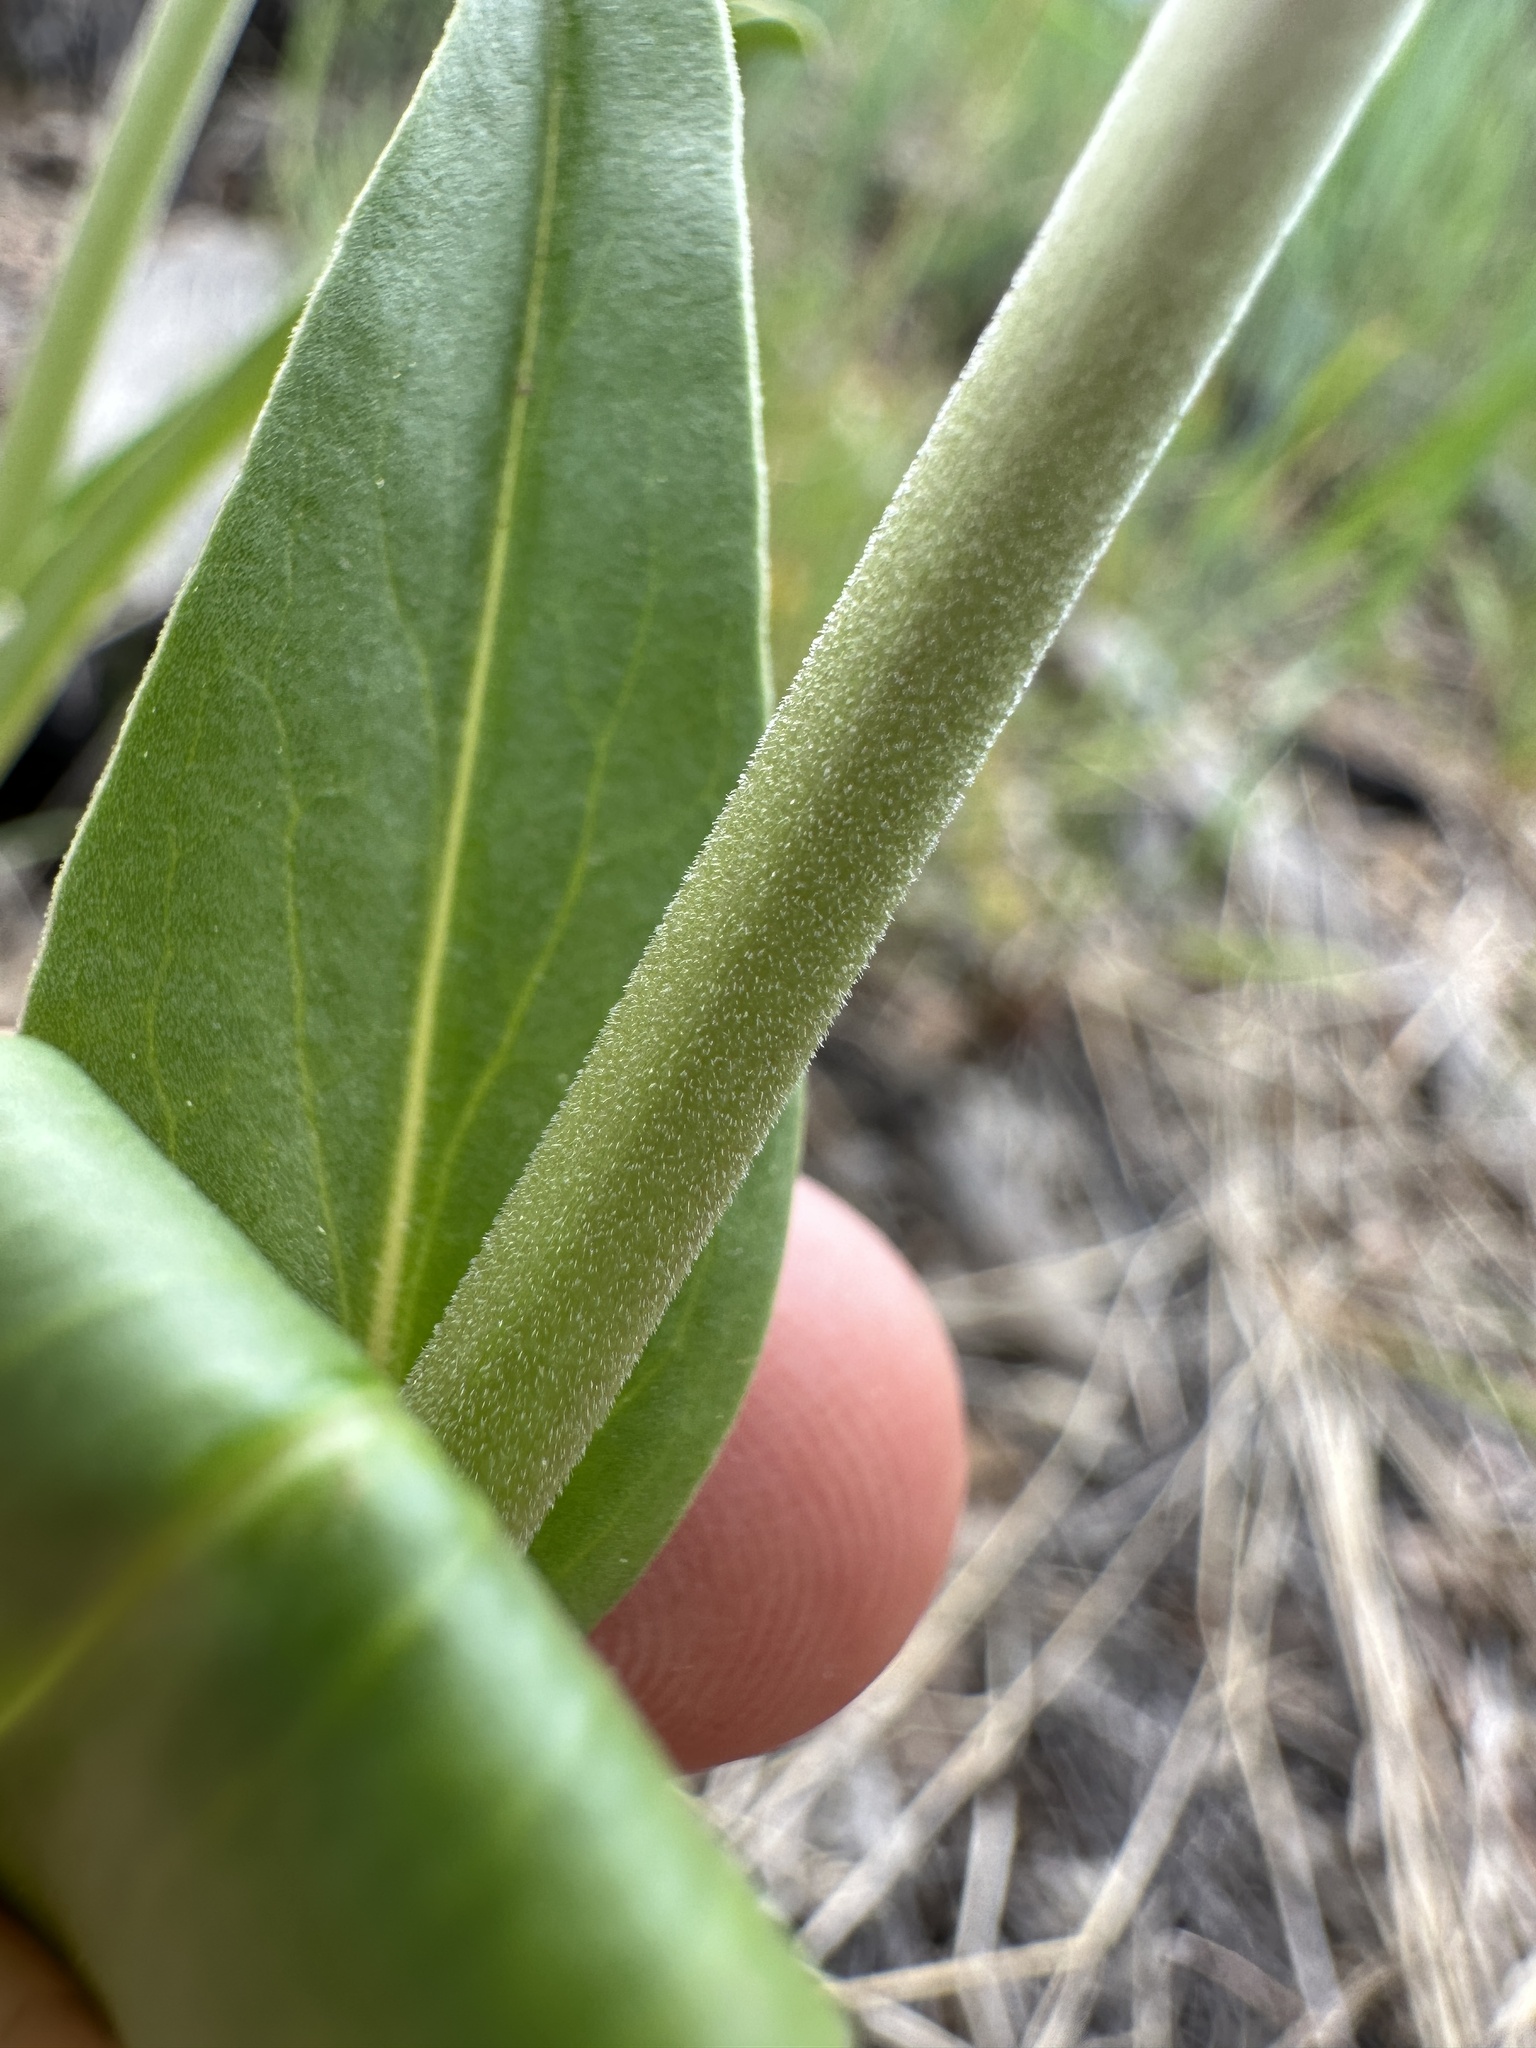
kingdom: Plantae
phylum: Tracheophyta
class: Magnoliopsida
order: Lamiales
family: Plantaginaceae
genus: Penstemon
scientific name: Penstemon tidestromii
